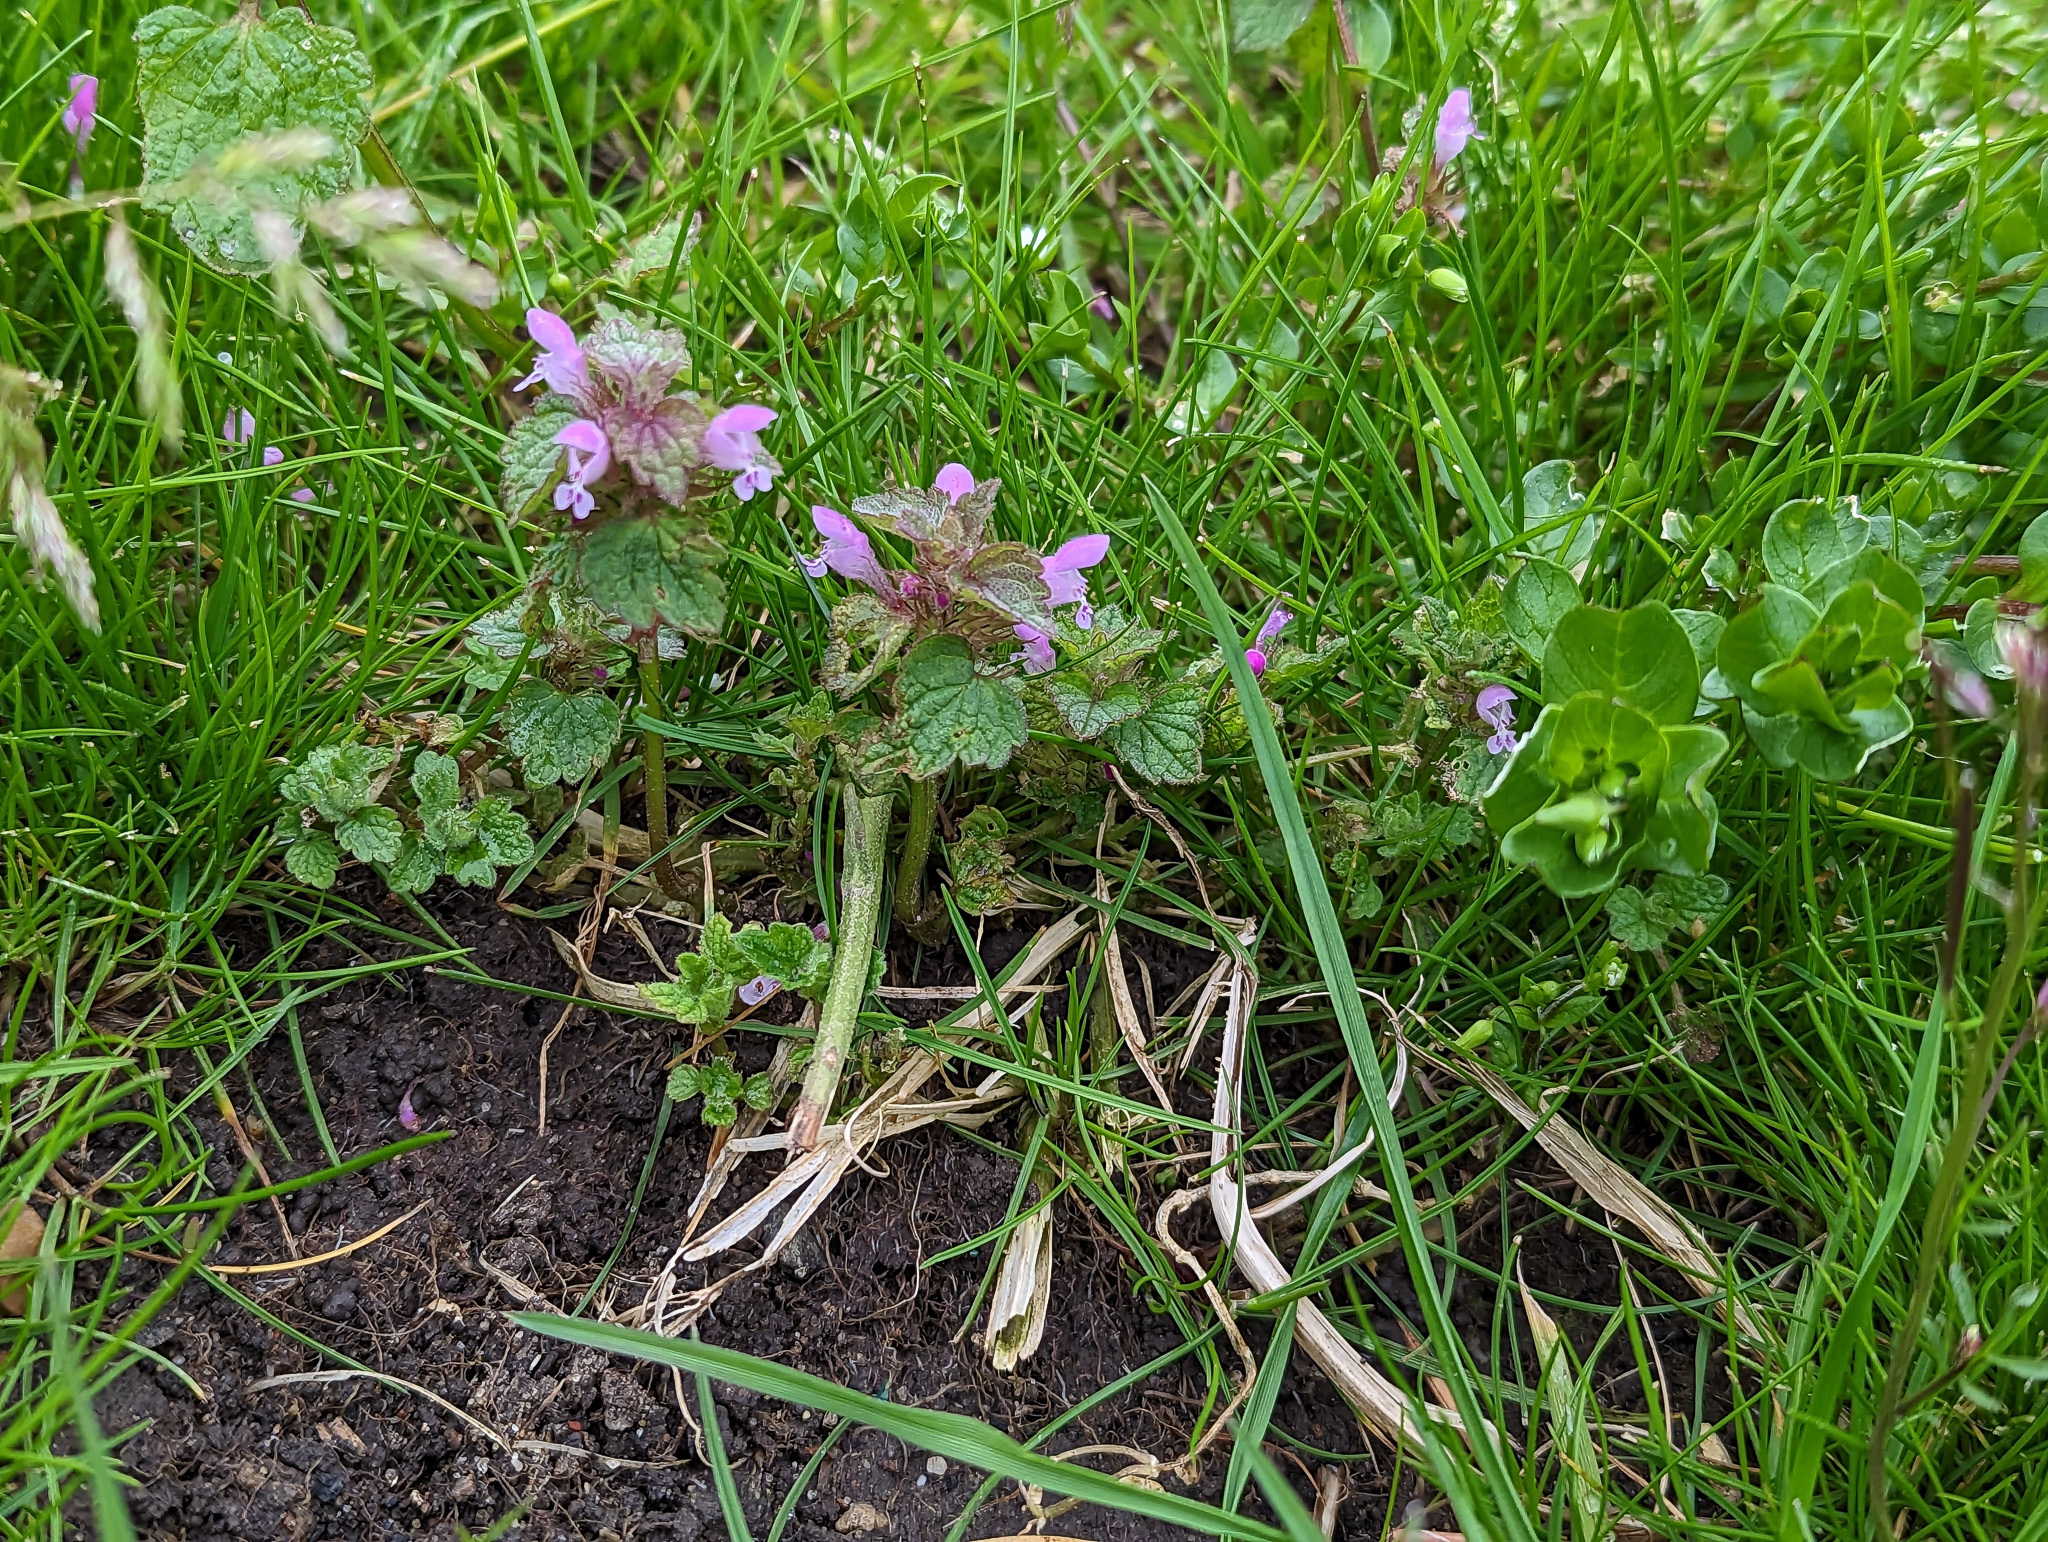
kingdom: Plantae
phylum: Tracheophyta
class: Magnoliopsida
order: Lamiales
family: Lamiaceae
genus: Lamium
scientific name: Lamium purpureum
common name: Red dead-nettle
